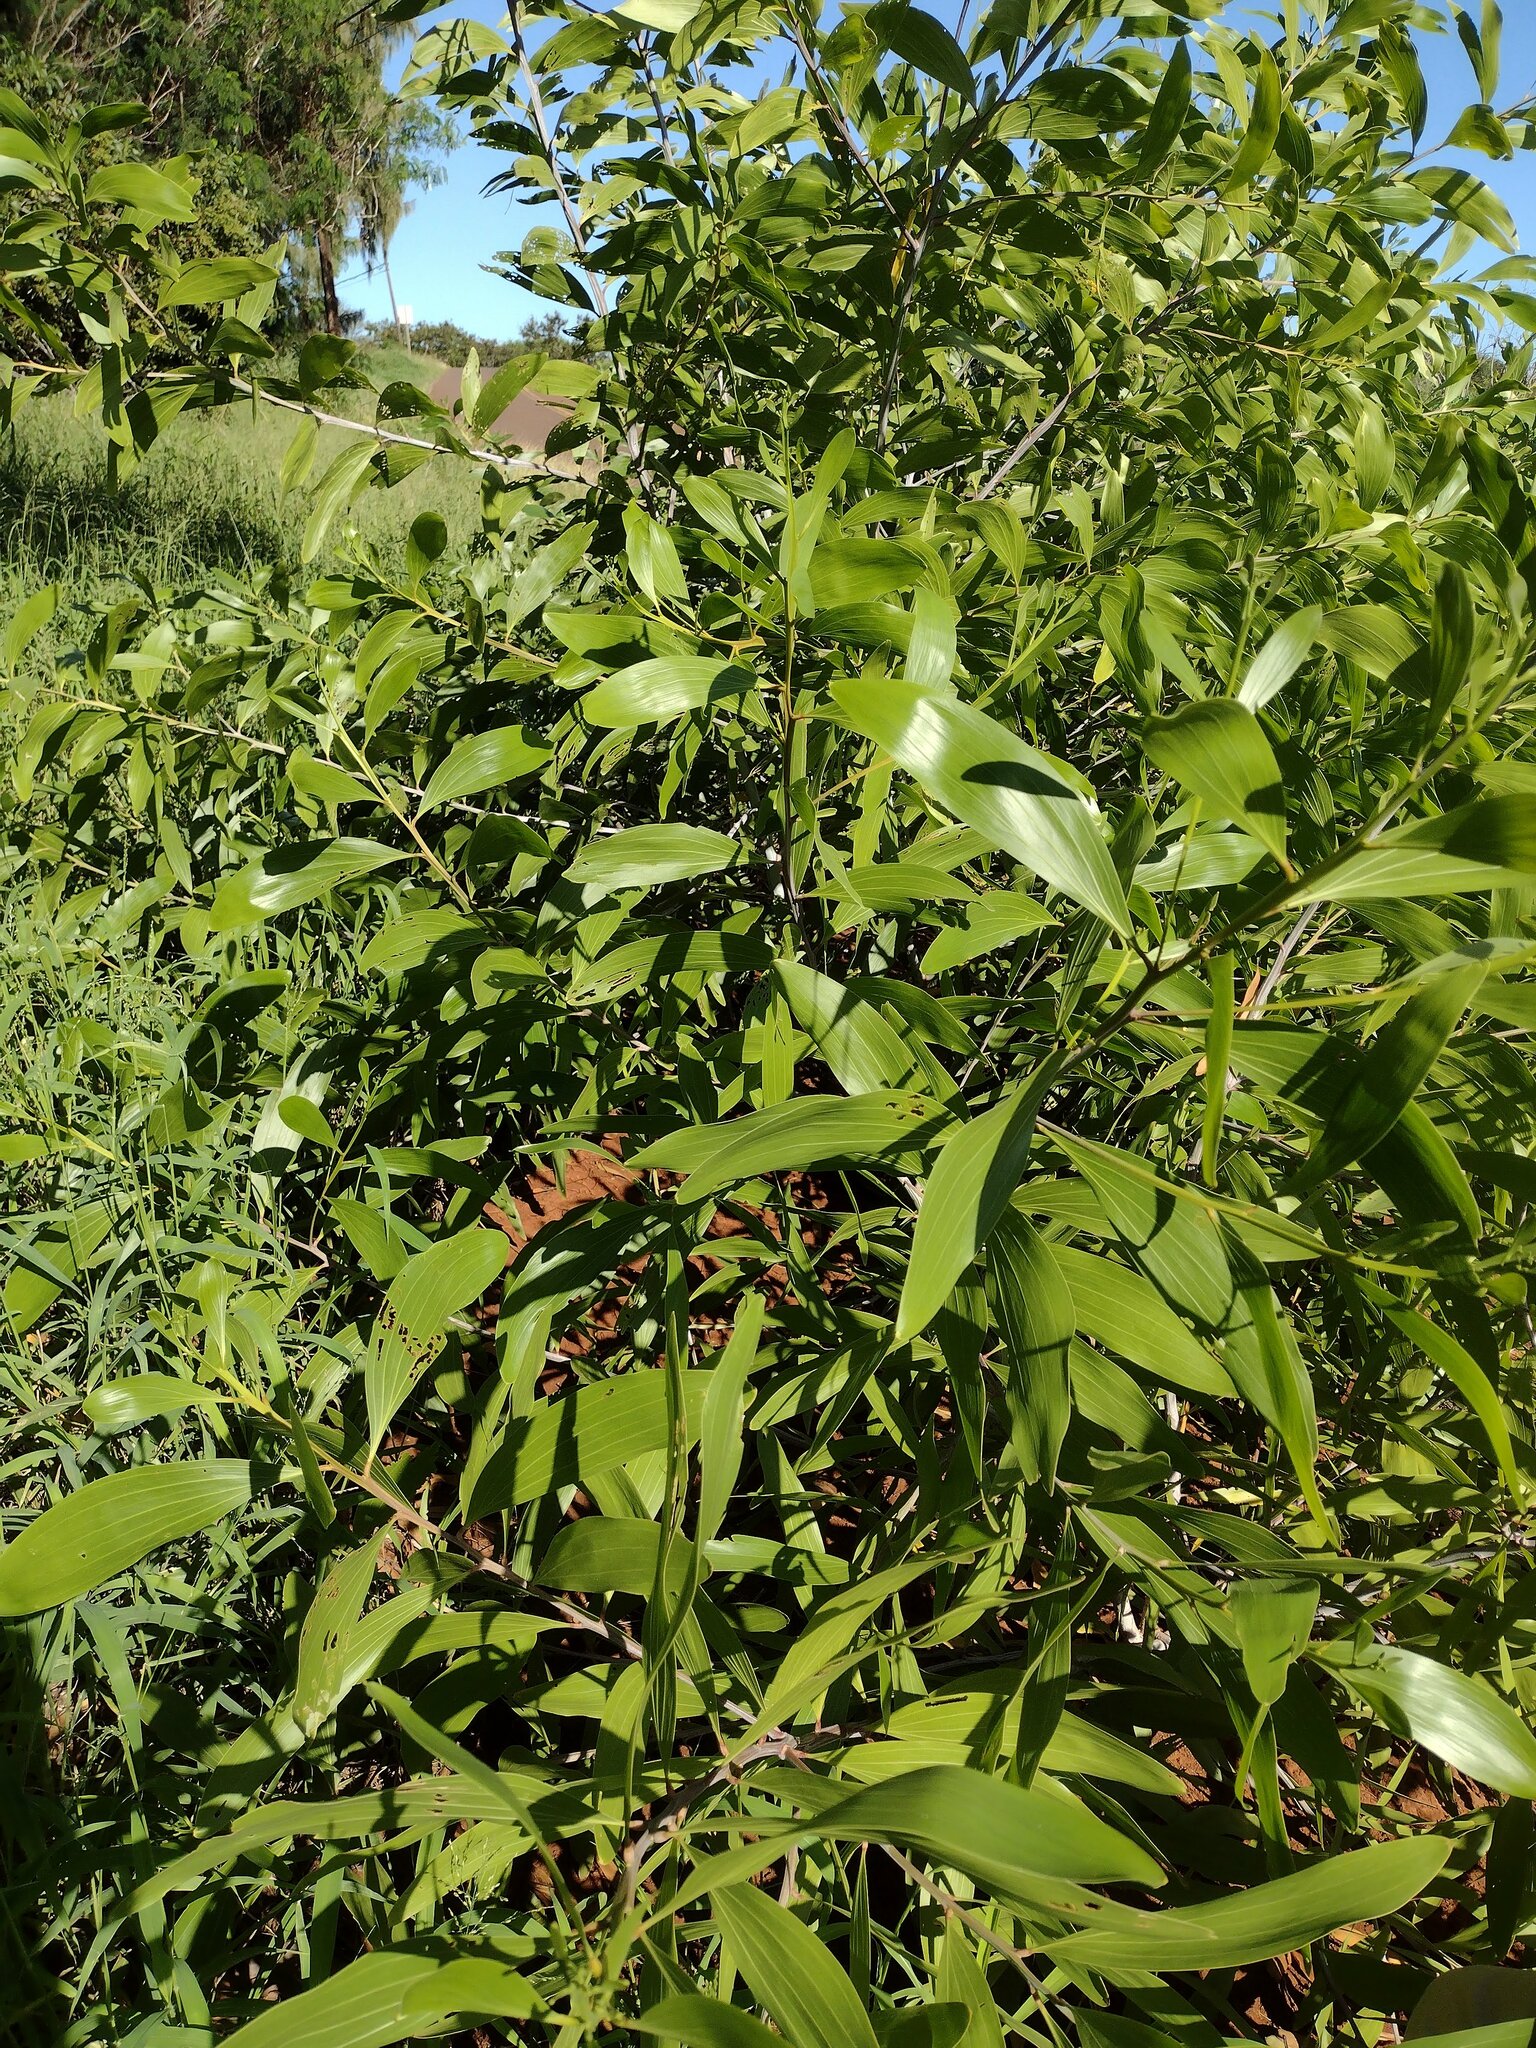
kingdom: Plantae
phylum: Tracheophyta
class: Magnoliopsida
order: Fabales
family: Fabaceae
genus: Acacia
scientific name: Acacia mangium
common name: Black wattle
